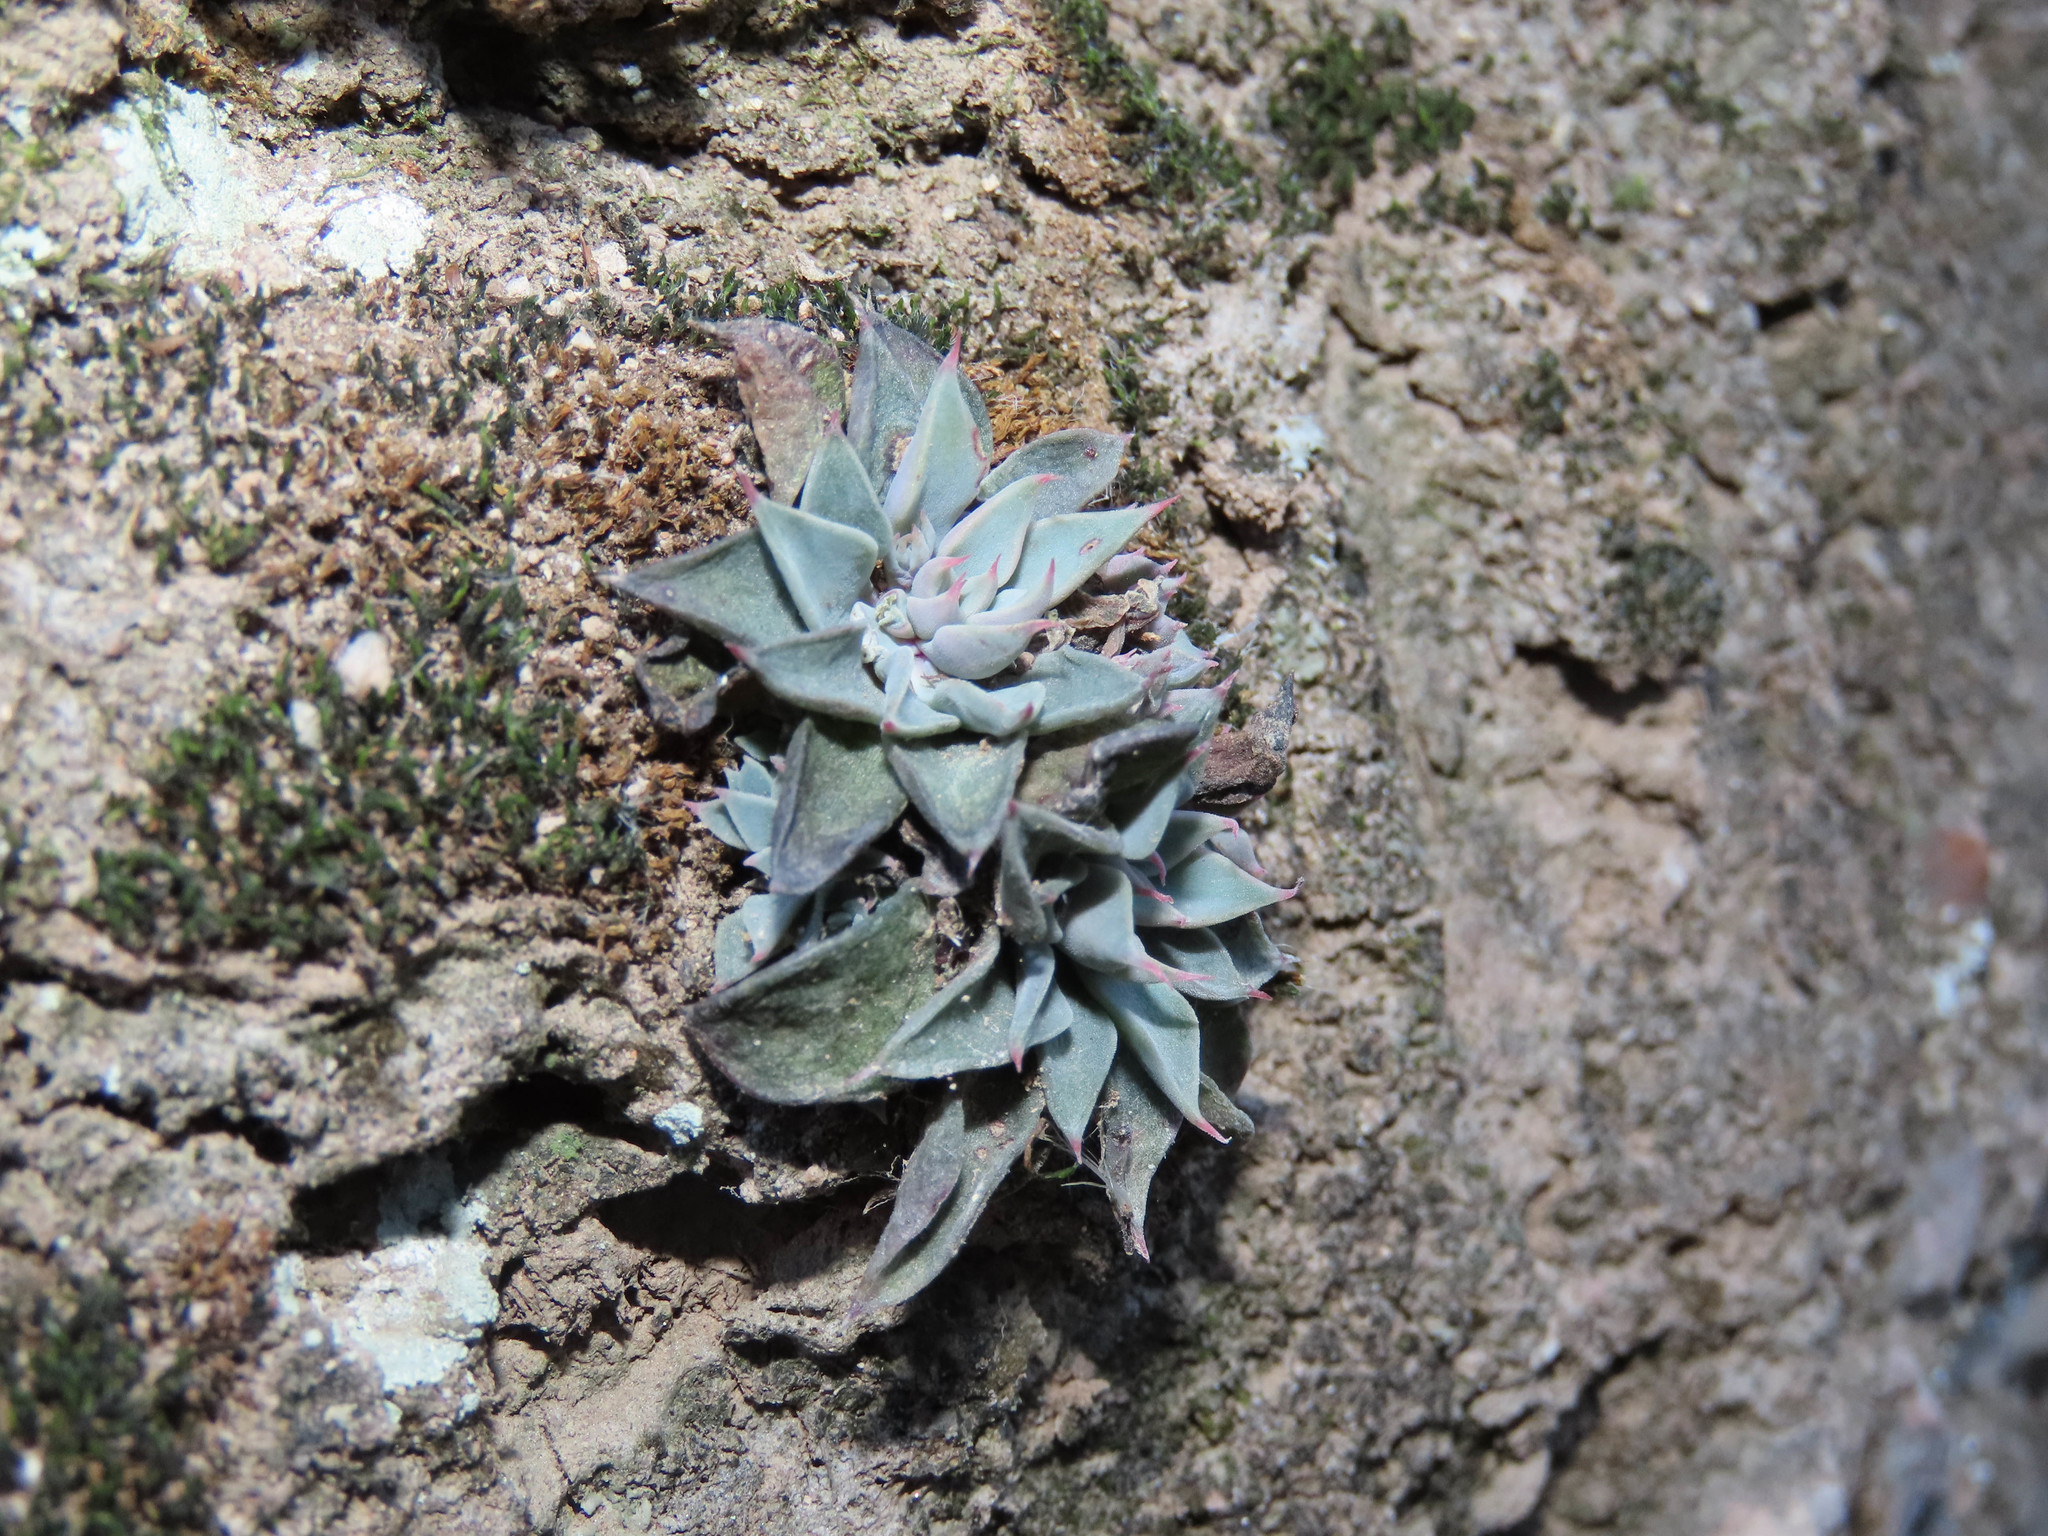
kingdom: Plantae
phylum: Tracheophyta
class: Magnoliopsida
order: Saxifragales
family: Crassulaceae
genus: Graptopetalum
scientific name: Graptopetalum rusbyi
